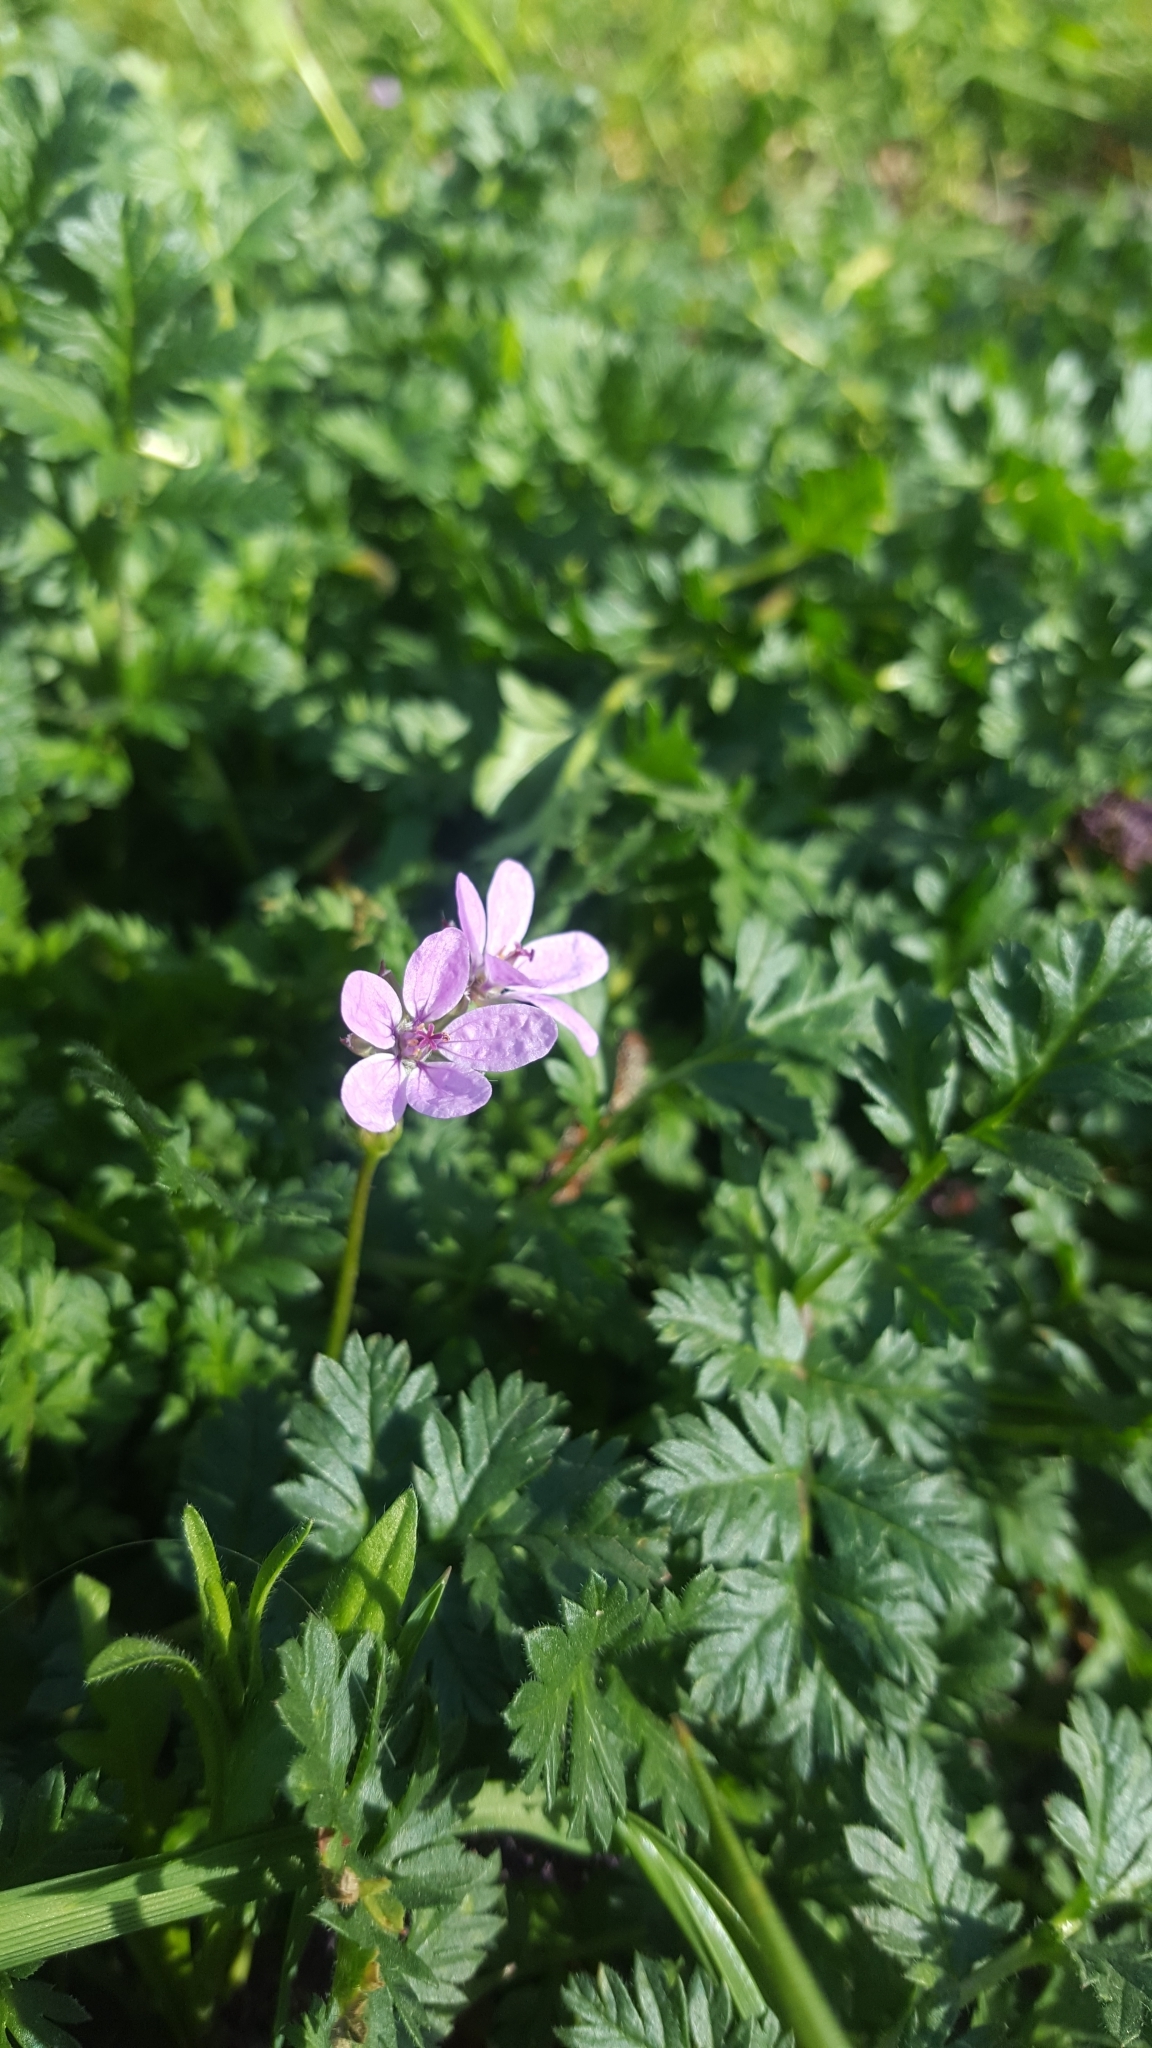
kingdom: Plantae
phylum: Tracheophyta
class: Magnoliopsida
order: Geraniales
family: Geraniaceae
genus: Erodium
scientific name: Erodium cicutarium
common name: Common stork's-bill
